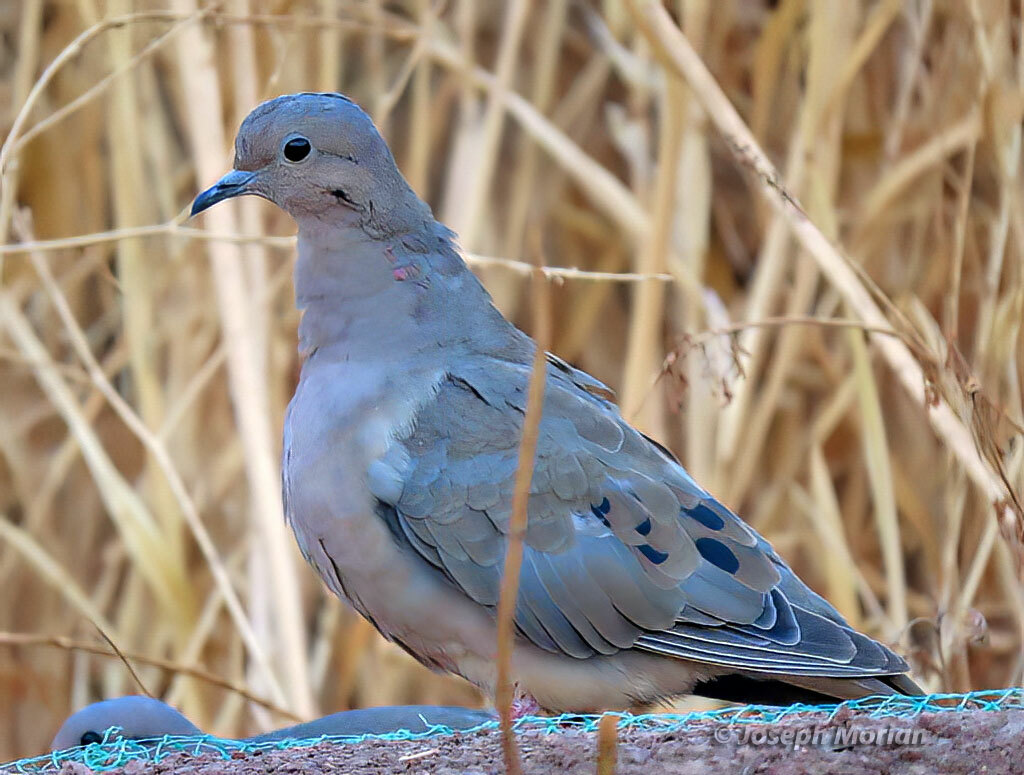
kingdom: Animalia
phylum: Chordata
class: Aves
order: Columbiformes
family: Columbidae
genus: Zenaida
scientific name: Zenaida auriculata
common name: Eared dove
